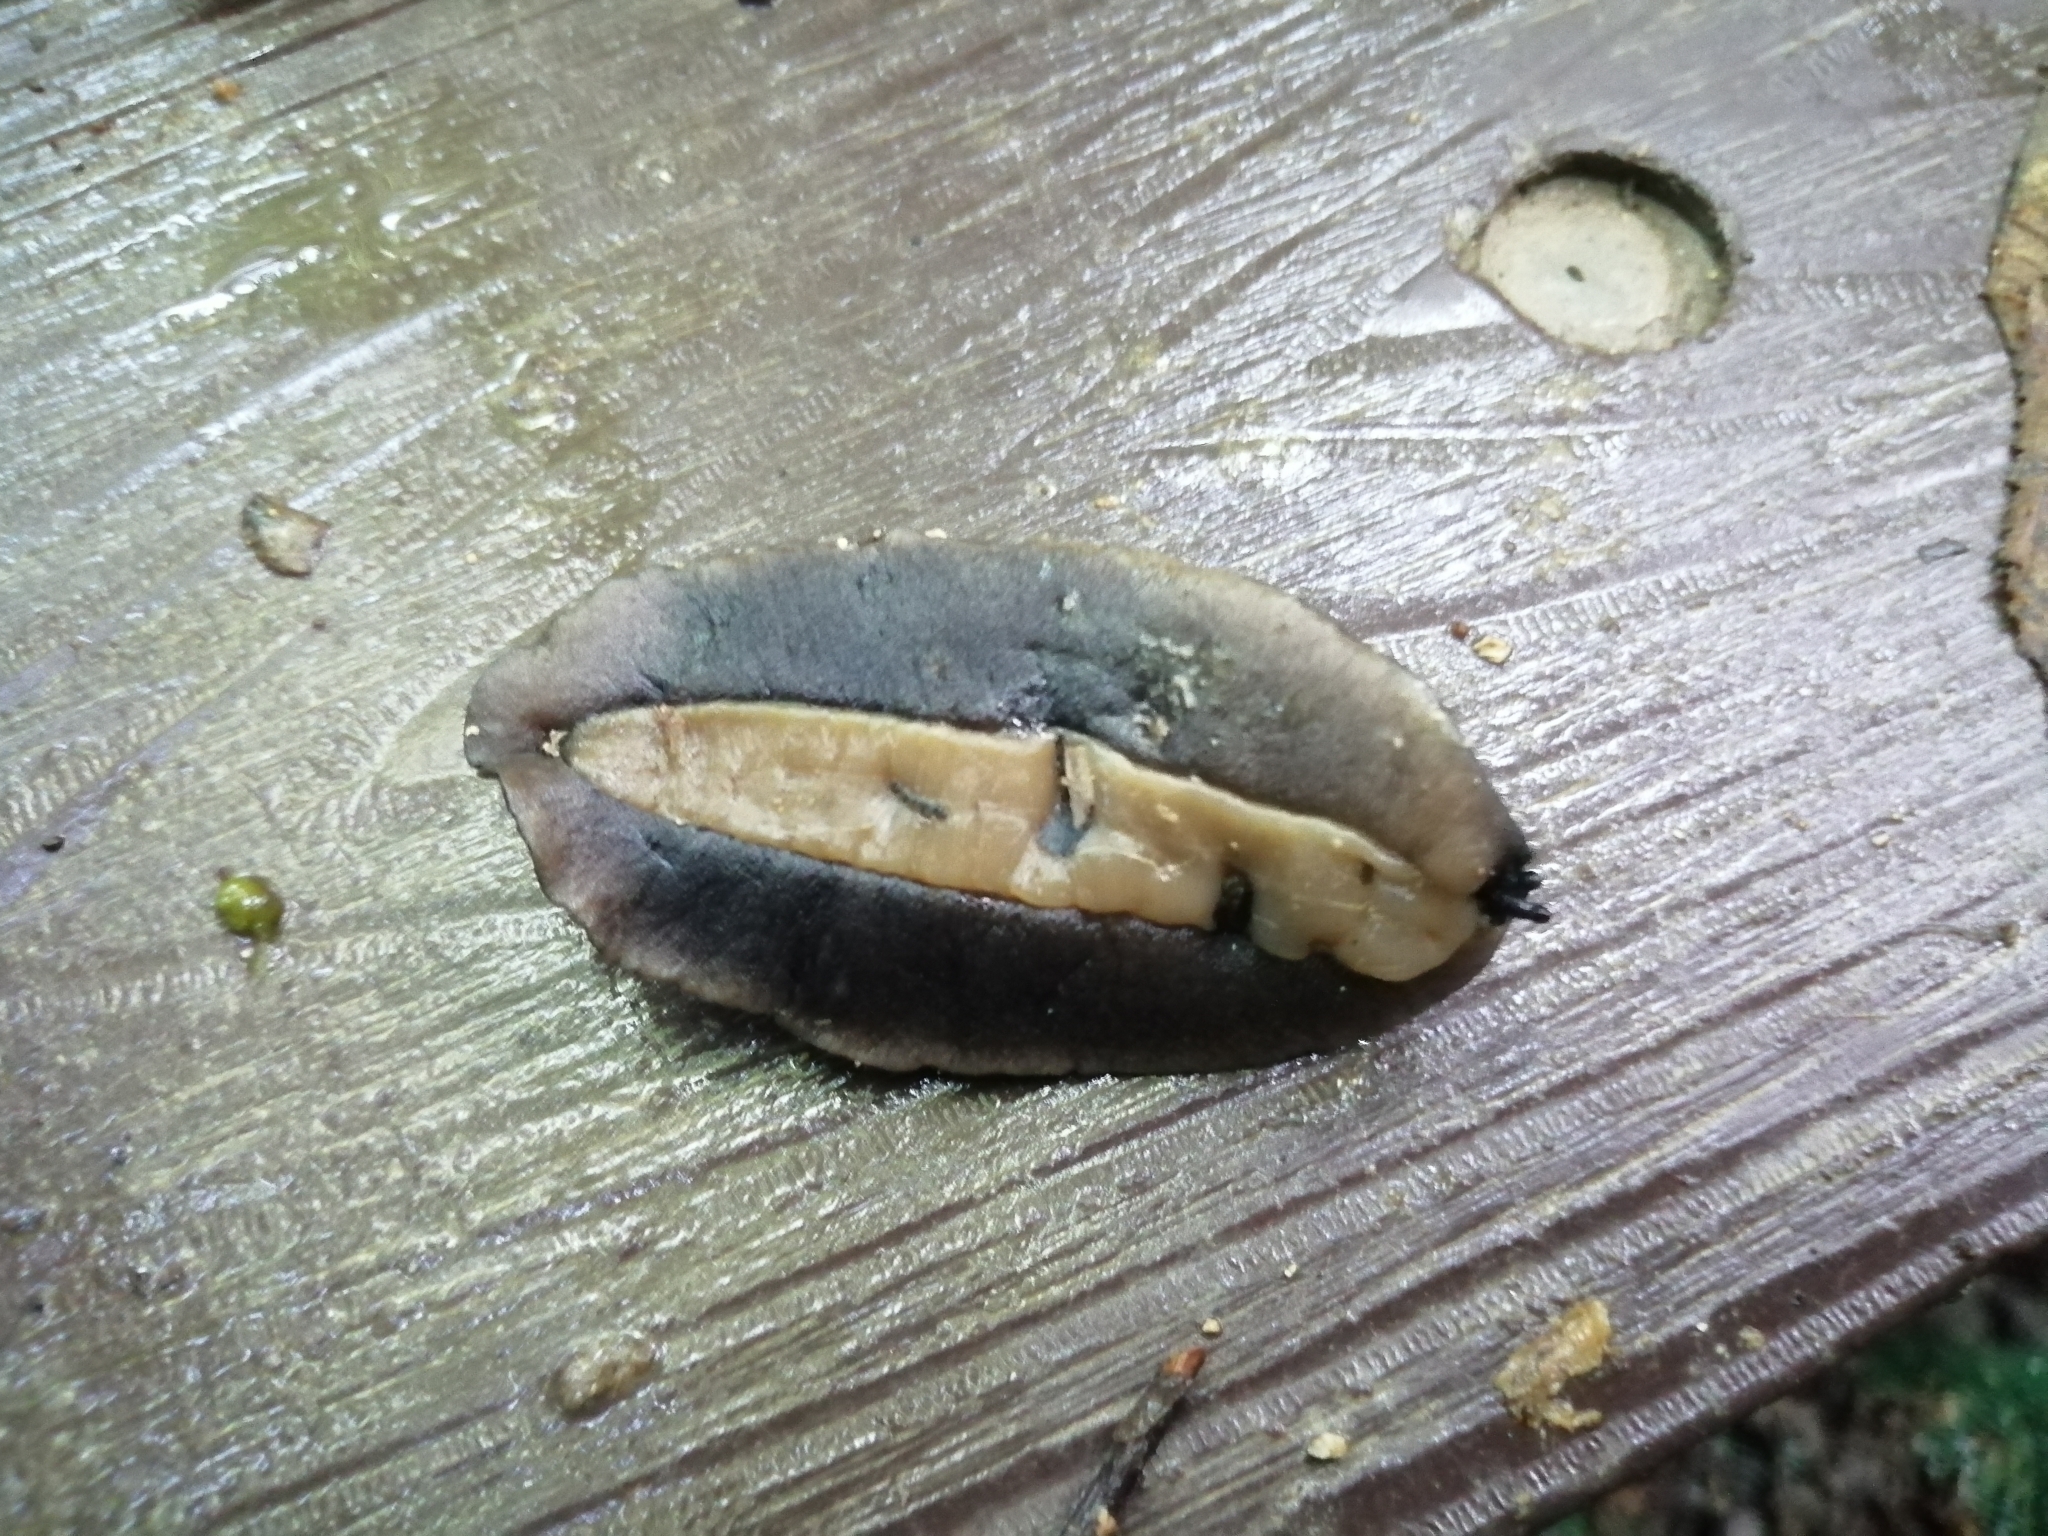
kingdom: Animalia
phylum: Mollusca
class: Gastropoda
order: Systellommatophora
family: Veronicellidae
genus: Laevicaulis
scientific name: Laevicaulis alte
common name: Tropical leatherleaf
